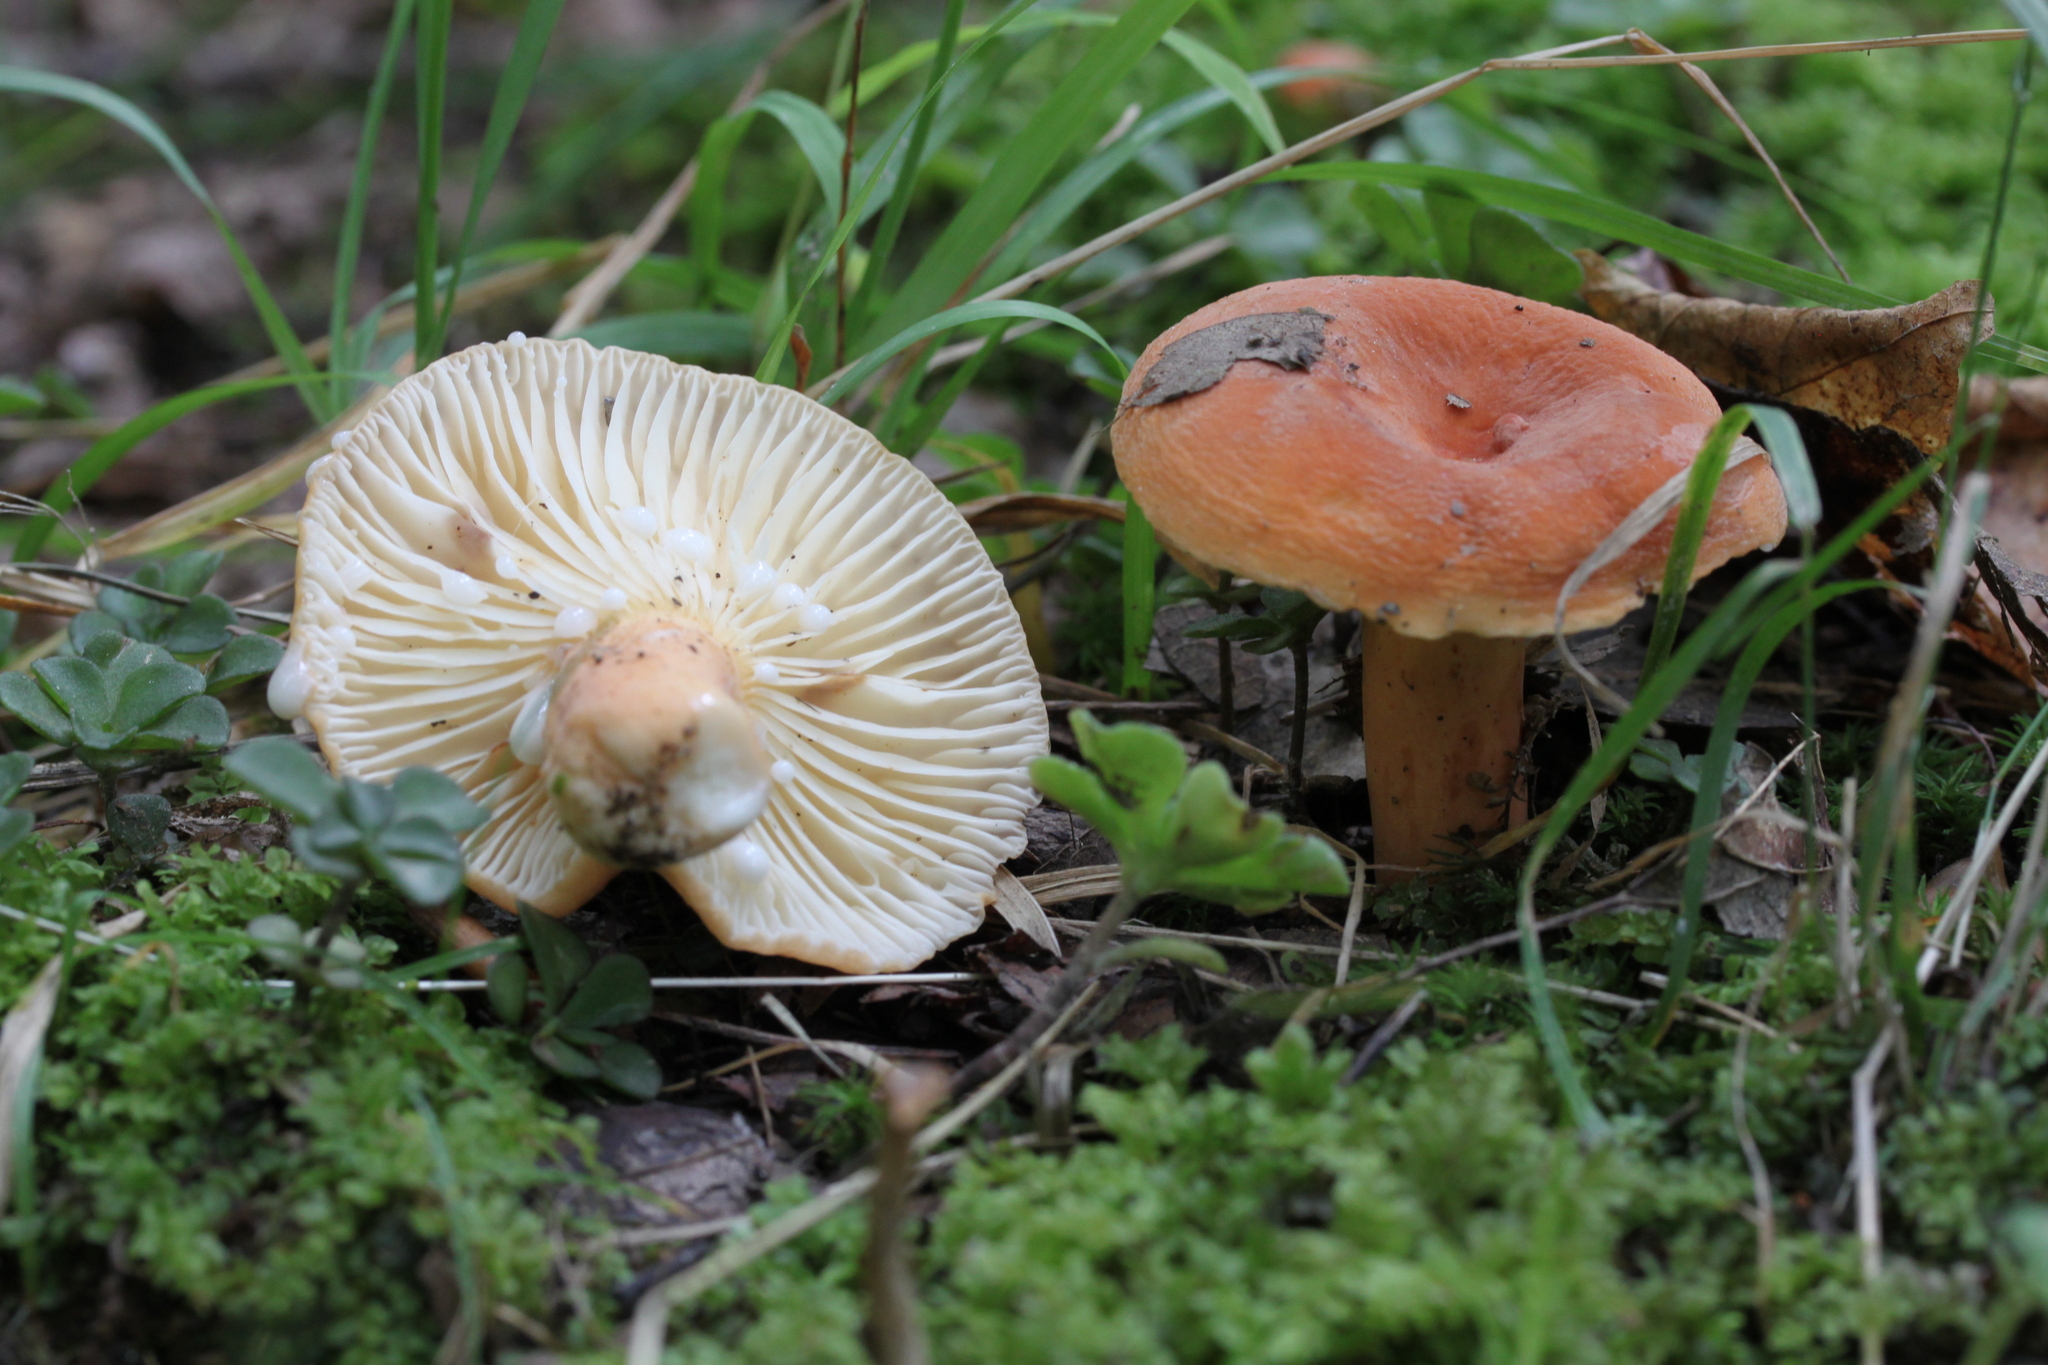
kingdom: Fungi
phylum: Basidiomycota
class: Agaricomycetes
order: Russulales
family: Russulaceae
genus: Lactarius
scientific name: Lactarius hygrophoroides
